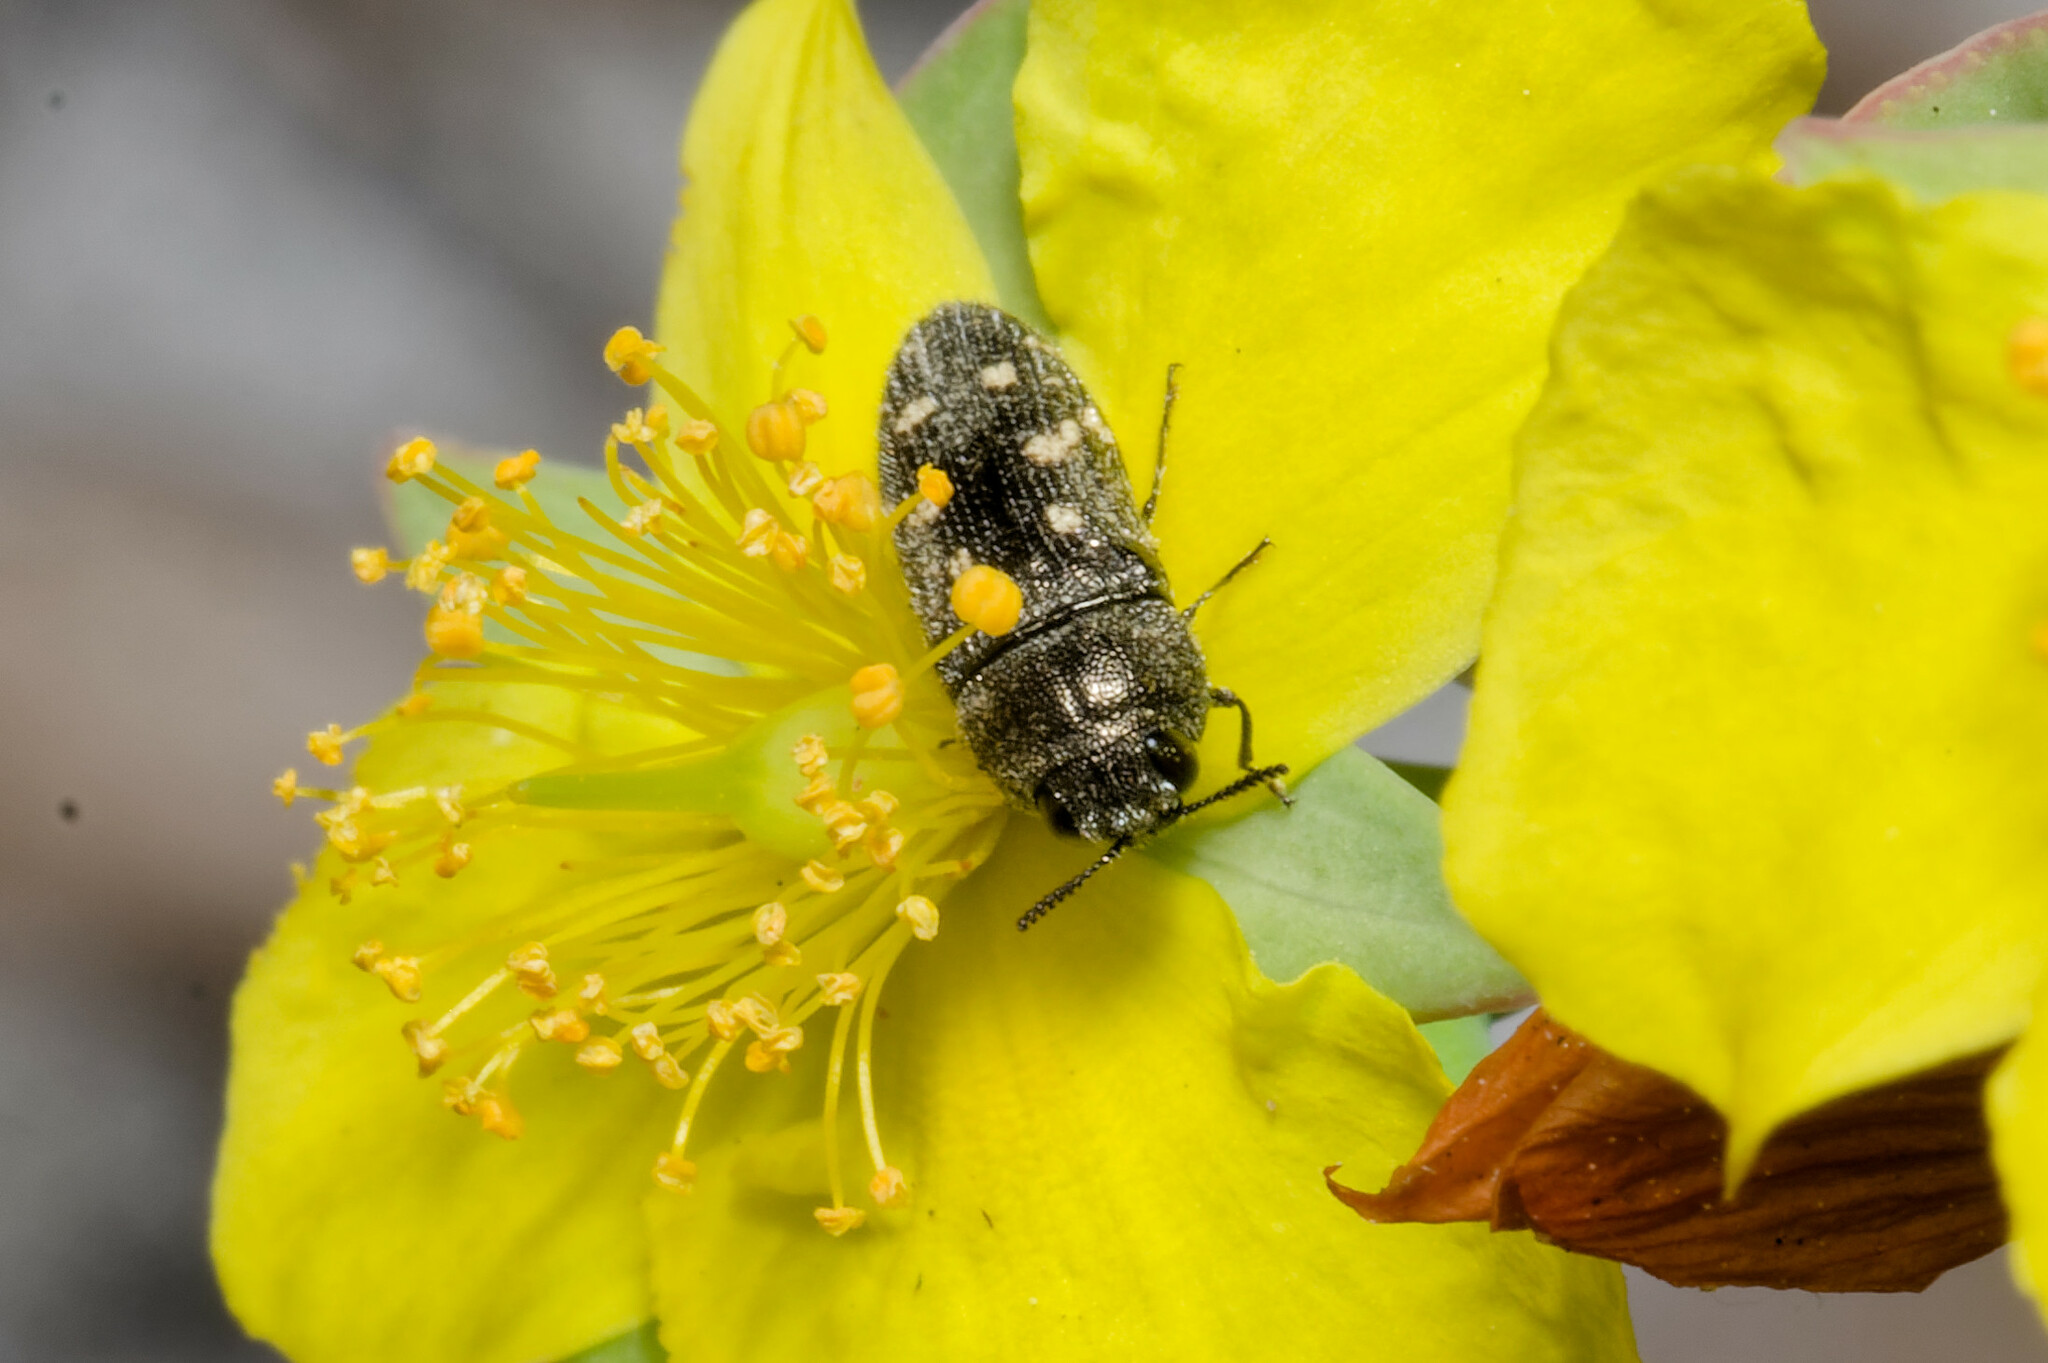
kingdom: Animalia
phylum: Arthropoda
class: Insecta
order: Coleoptera
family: Buprestidae
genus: Acmaeodera
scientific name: Acmaeodera tubulus
